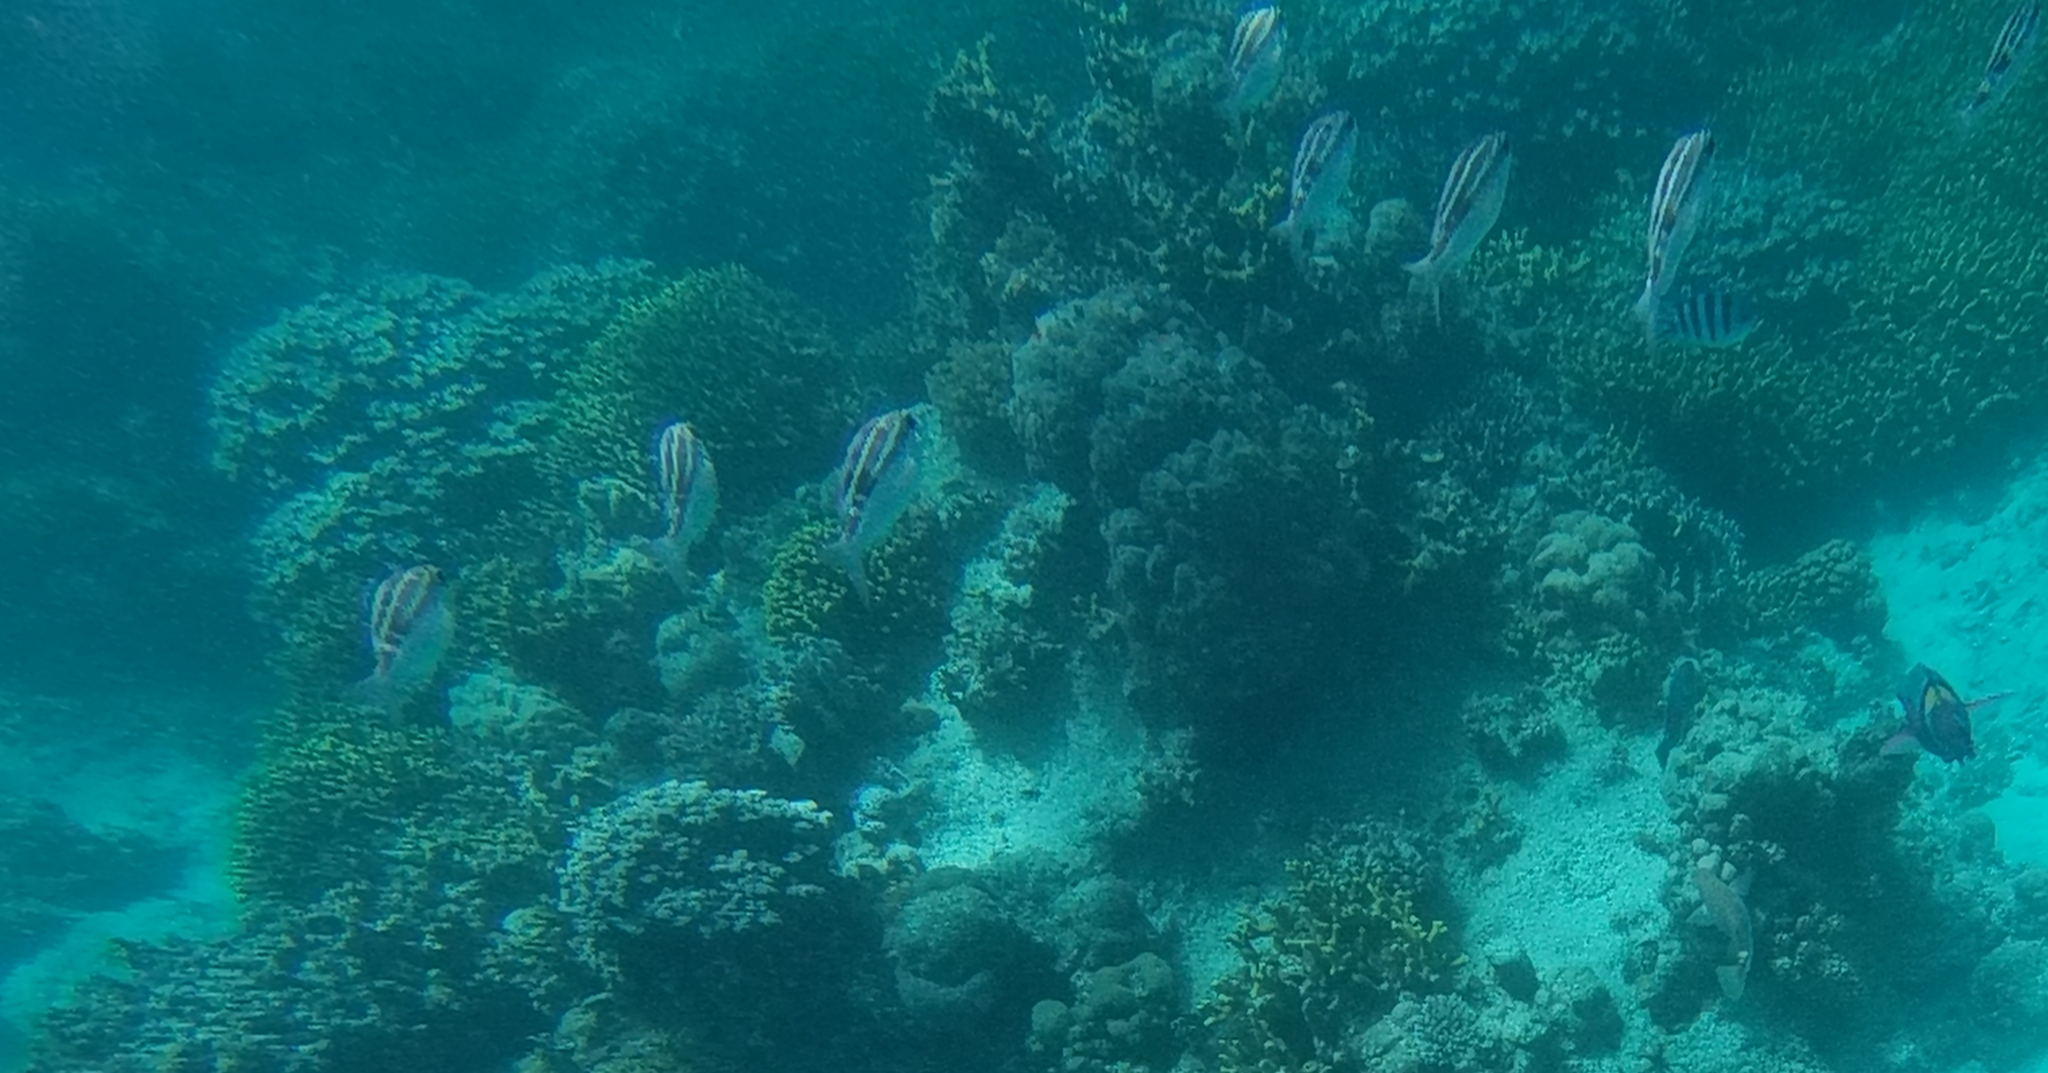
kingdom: Animalia
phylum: Chordata
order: Perciformes
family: Nemipteridae
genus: Scolopsis
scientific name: Scolopsis lineata
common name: Striped monocle bream
